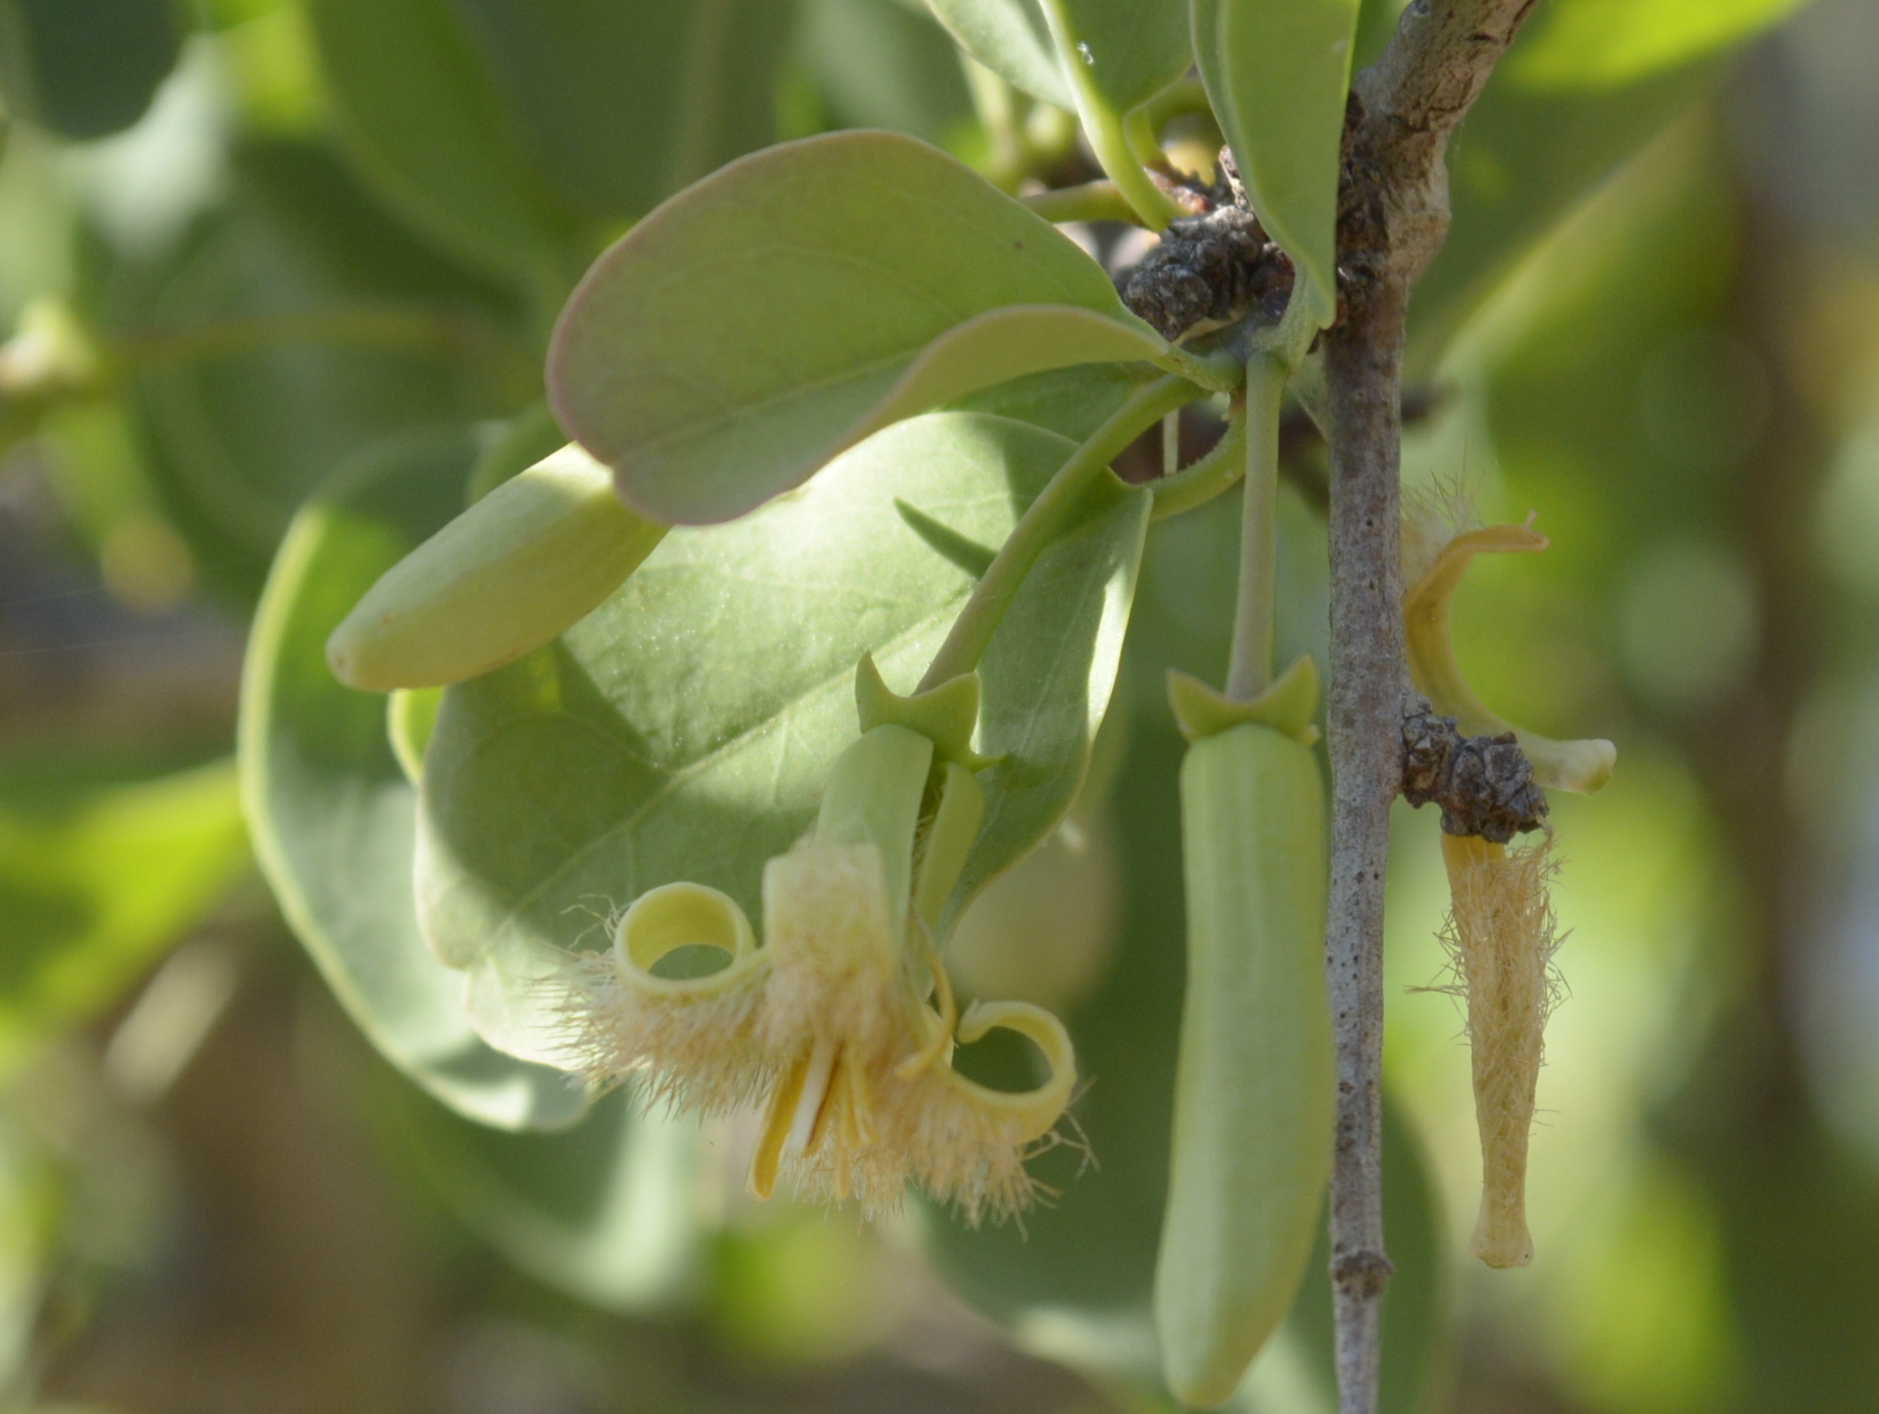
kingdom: Plantae
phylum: Tracheophyta
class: Magnoliopsida
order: Santalales
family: Ximeniaceae
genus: Ximenia
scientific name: Ximenia americana
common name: Tallowwood
